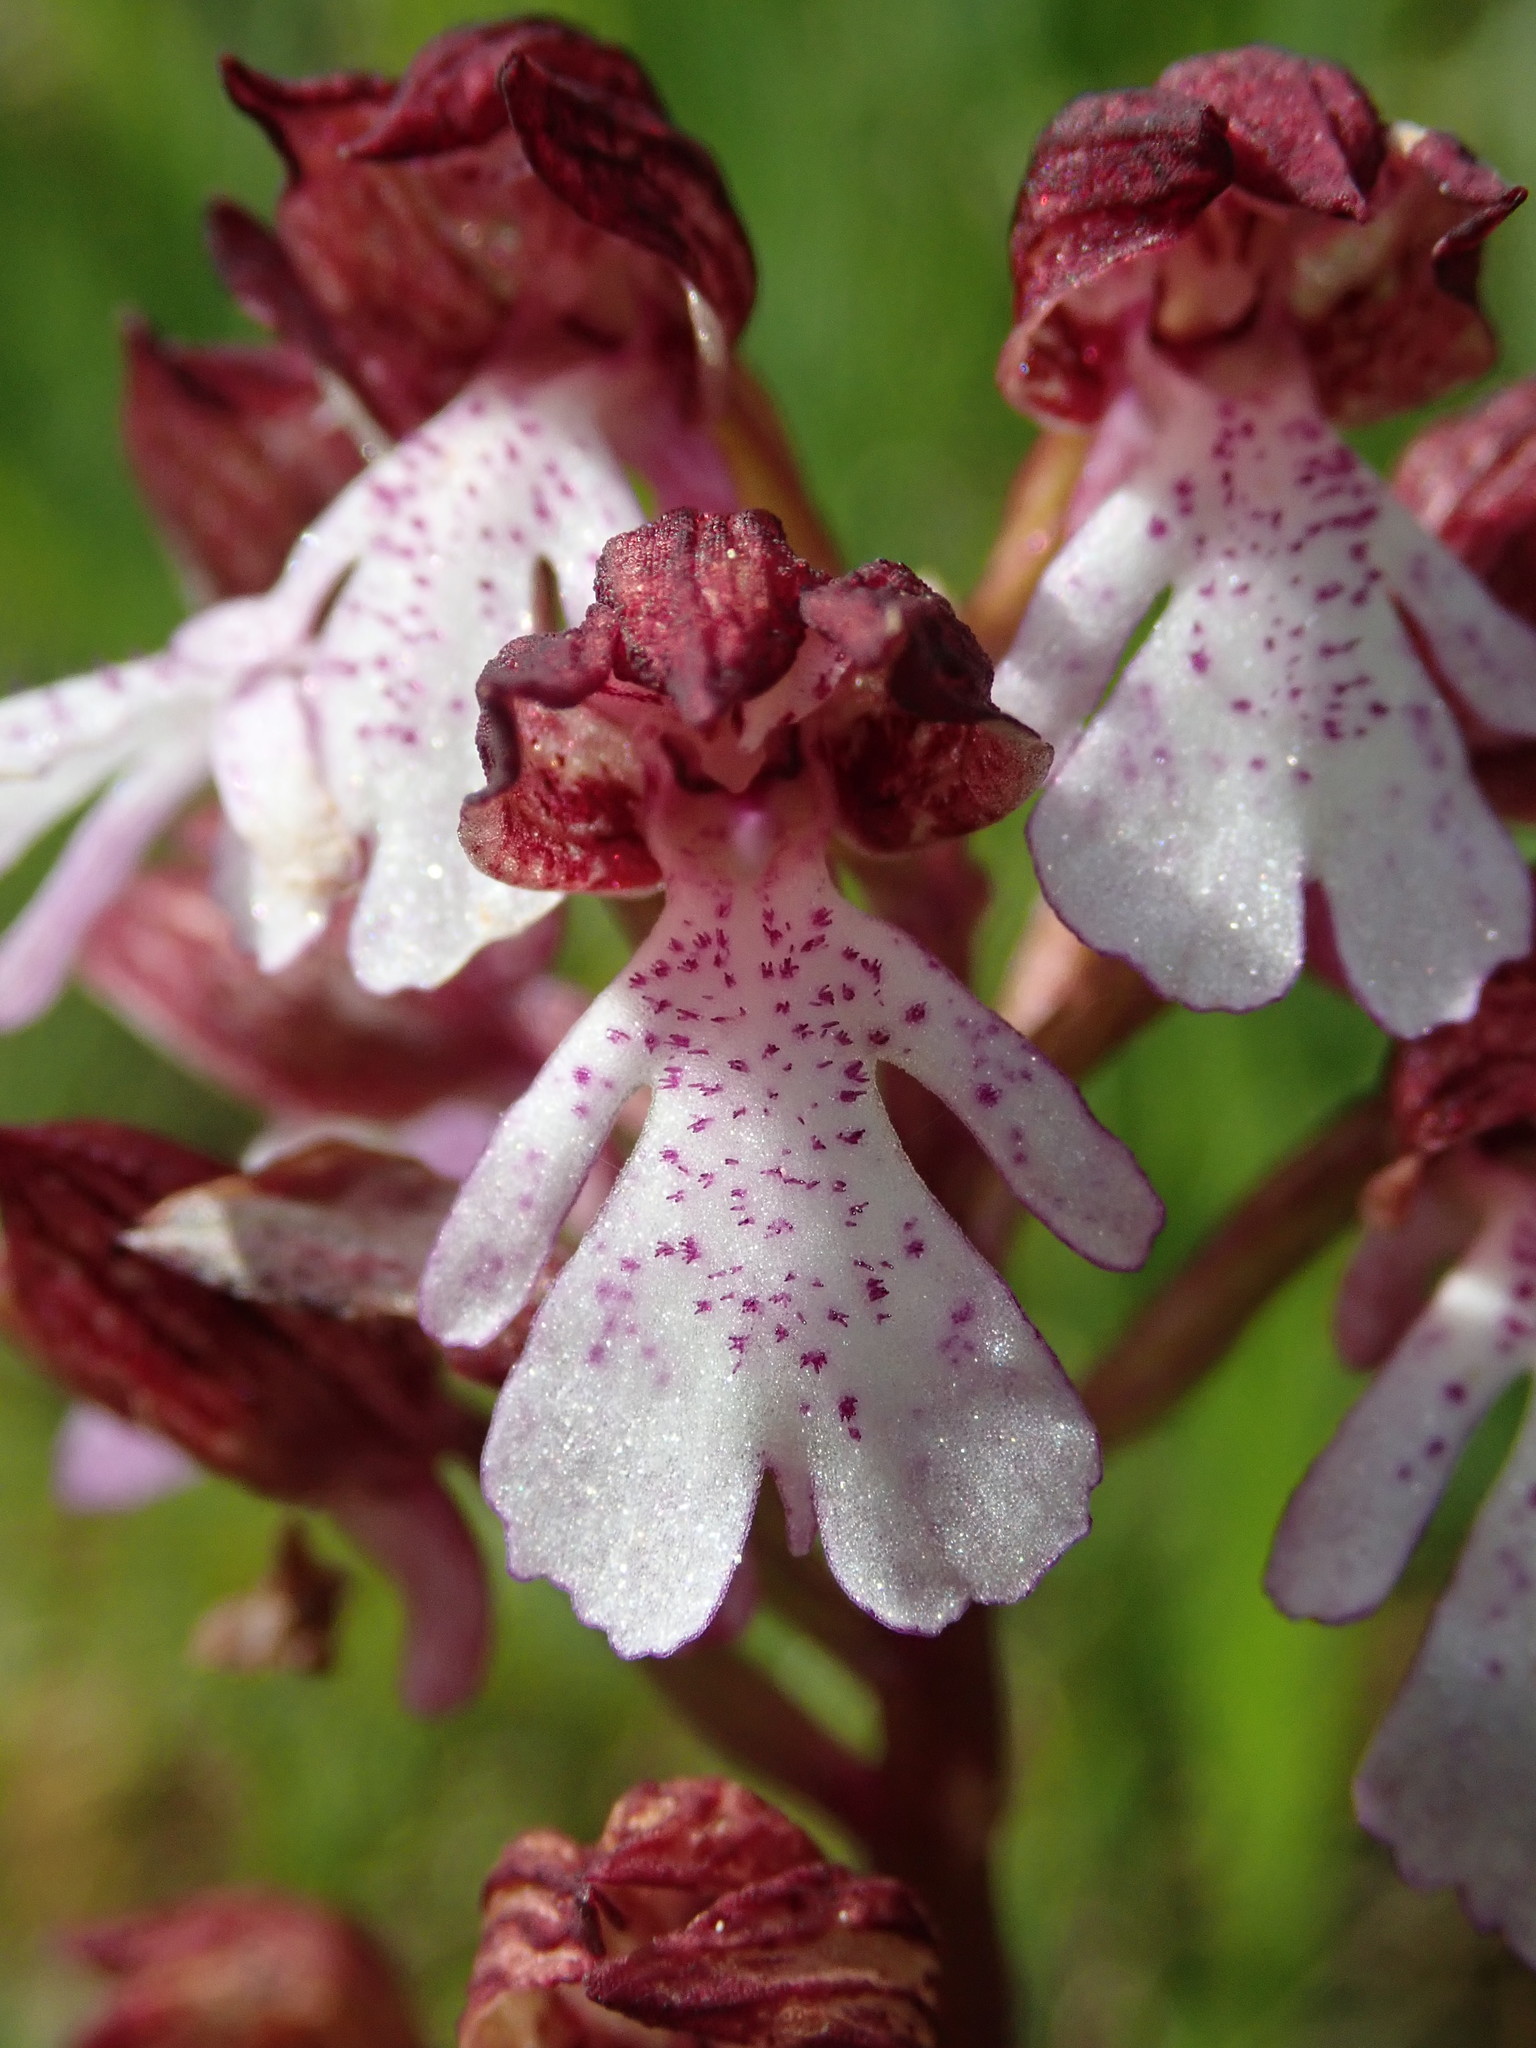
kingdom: Plantae
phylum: Tracheophyta
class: Liliopsida
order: Asparagales
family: Orchidaceae
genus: Orchis
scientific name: Orchis purpurea
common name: Lady orchid
